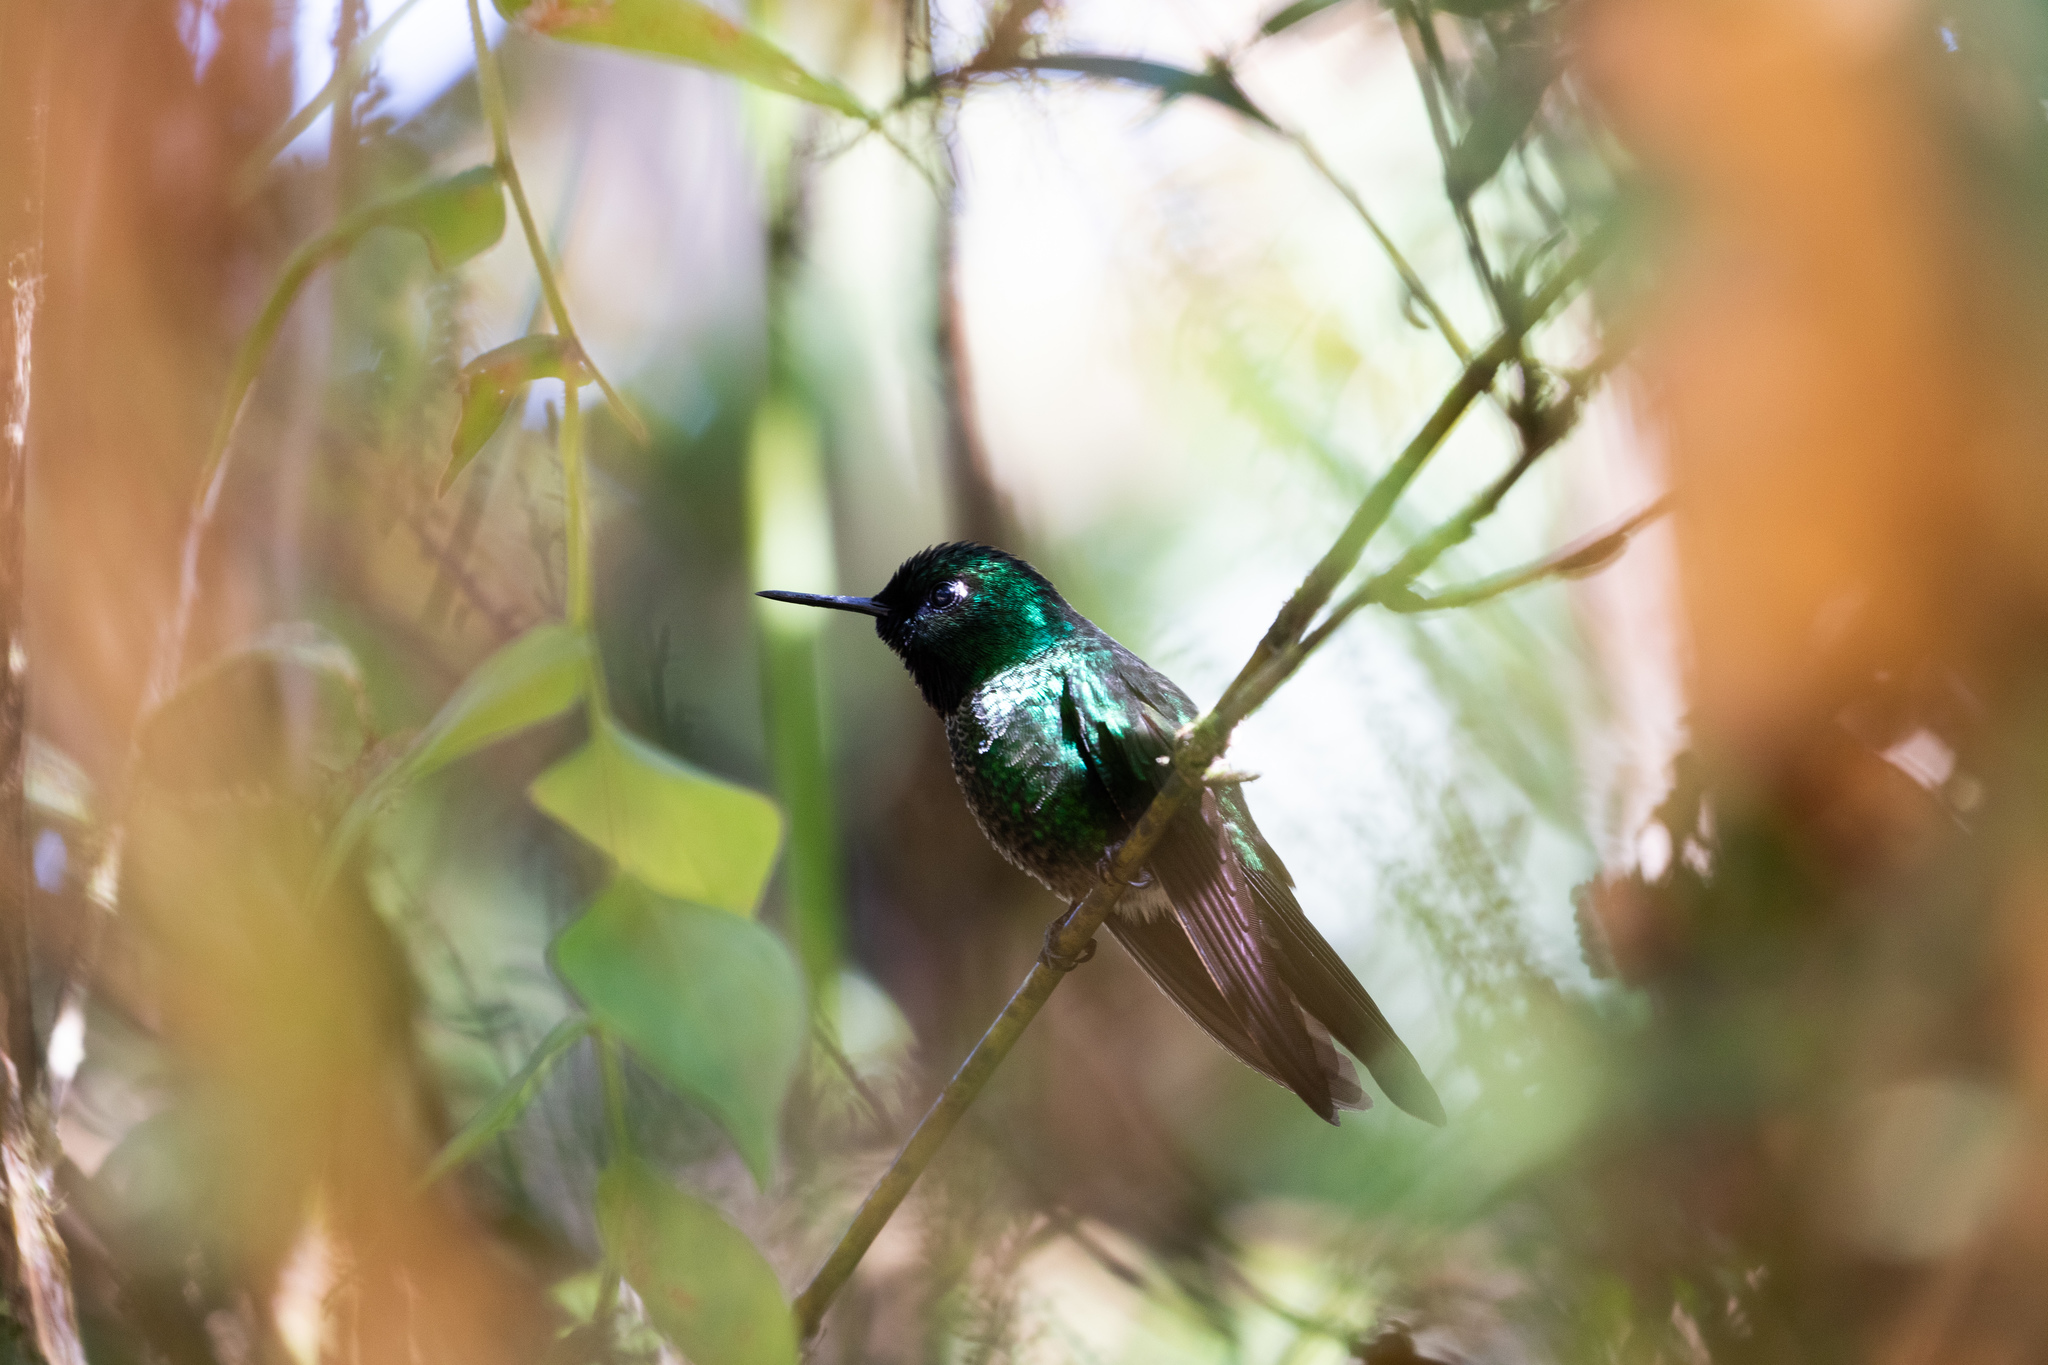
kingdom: Animalia
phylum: Chordata
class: Aves
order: Apodiformes
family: Trochilidae
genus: Heliangelus
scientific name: Heliangelus exortis
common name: Tourmaline sunangel
